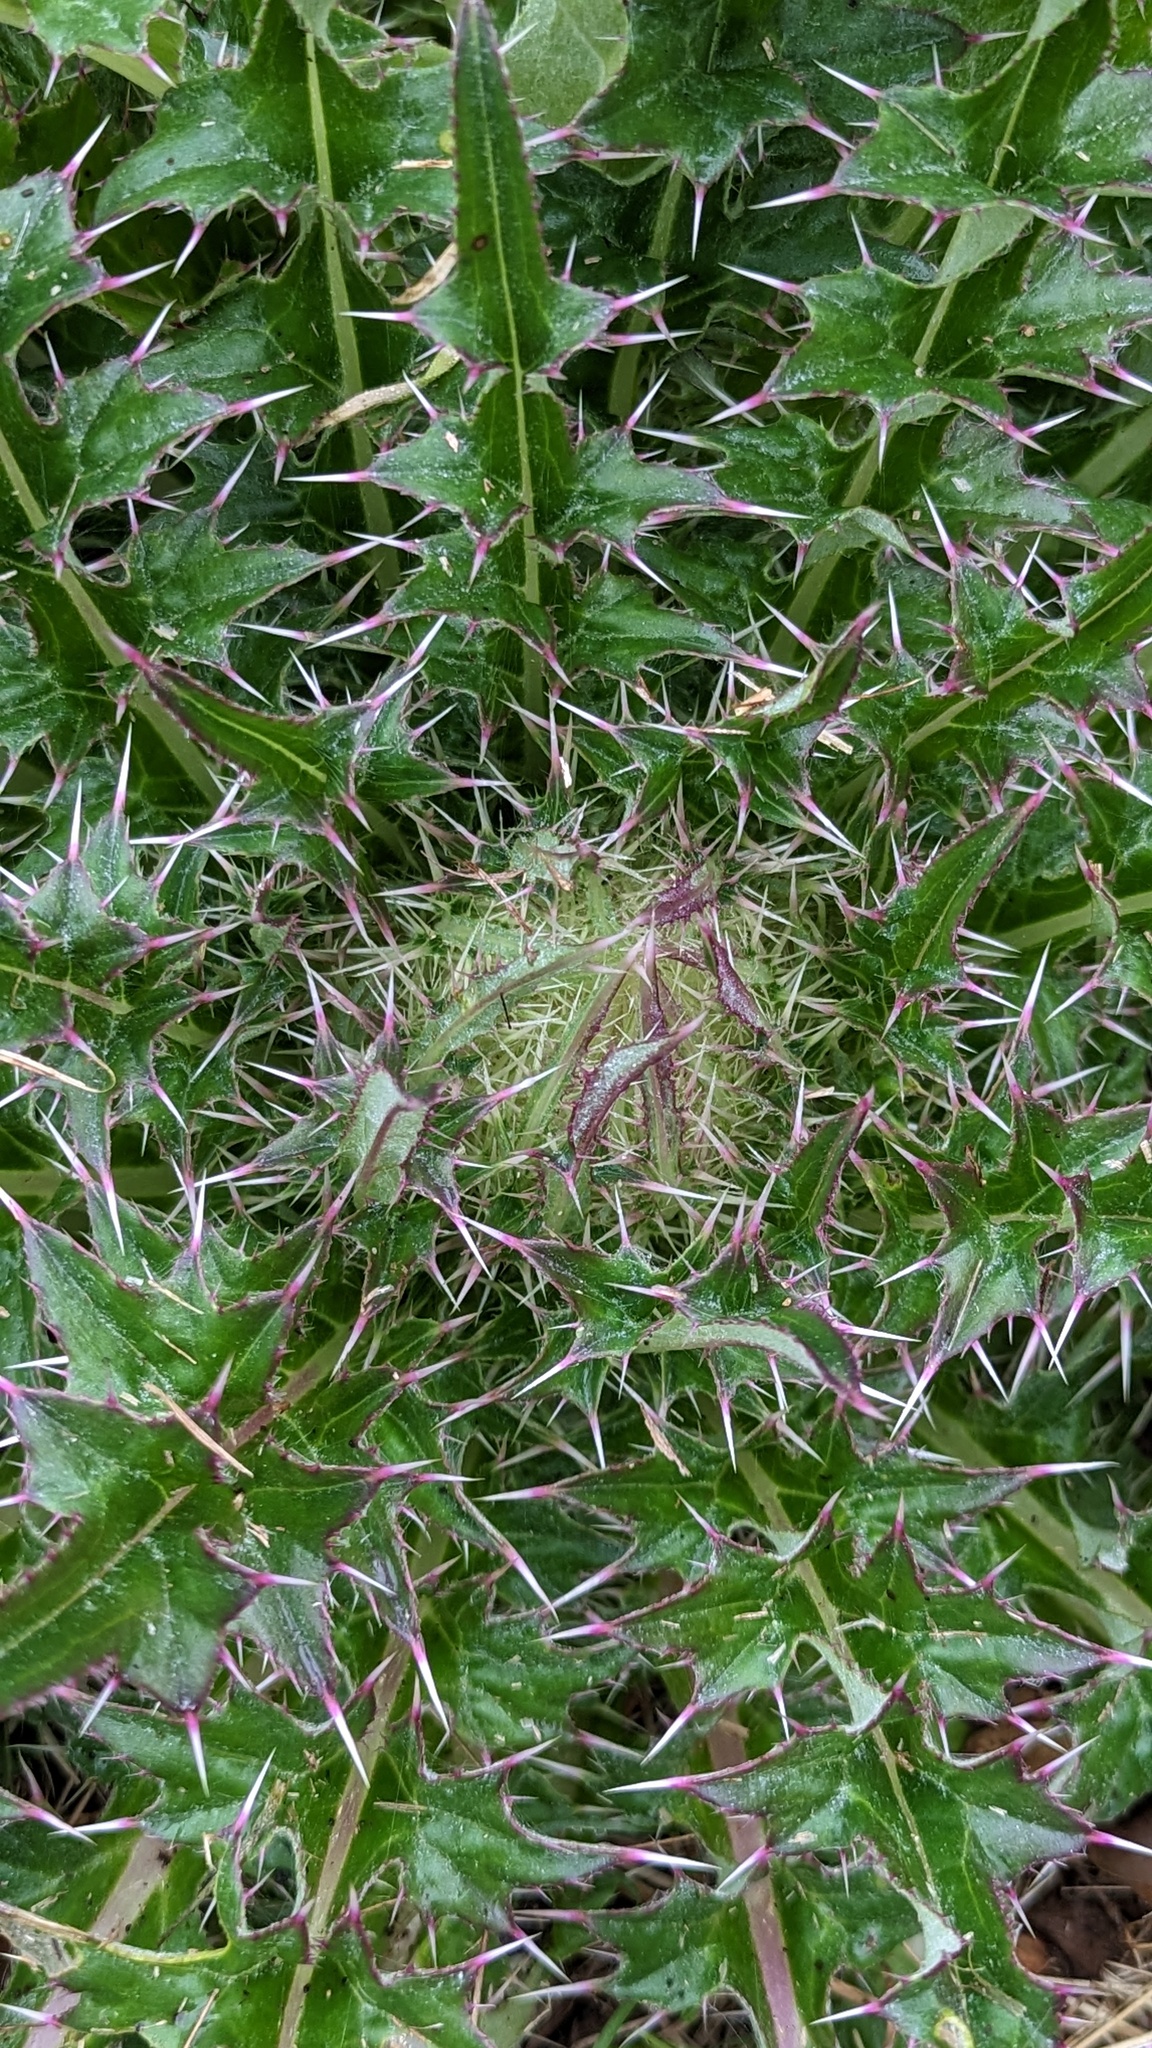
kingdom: Plantae
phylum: Tracheophyta
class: Magnoliopsida
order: Asterales
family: Asteraceae
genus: Cirsium
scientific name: Cirsium horridulum
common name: Bristly thistle
